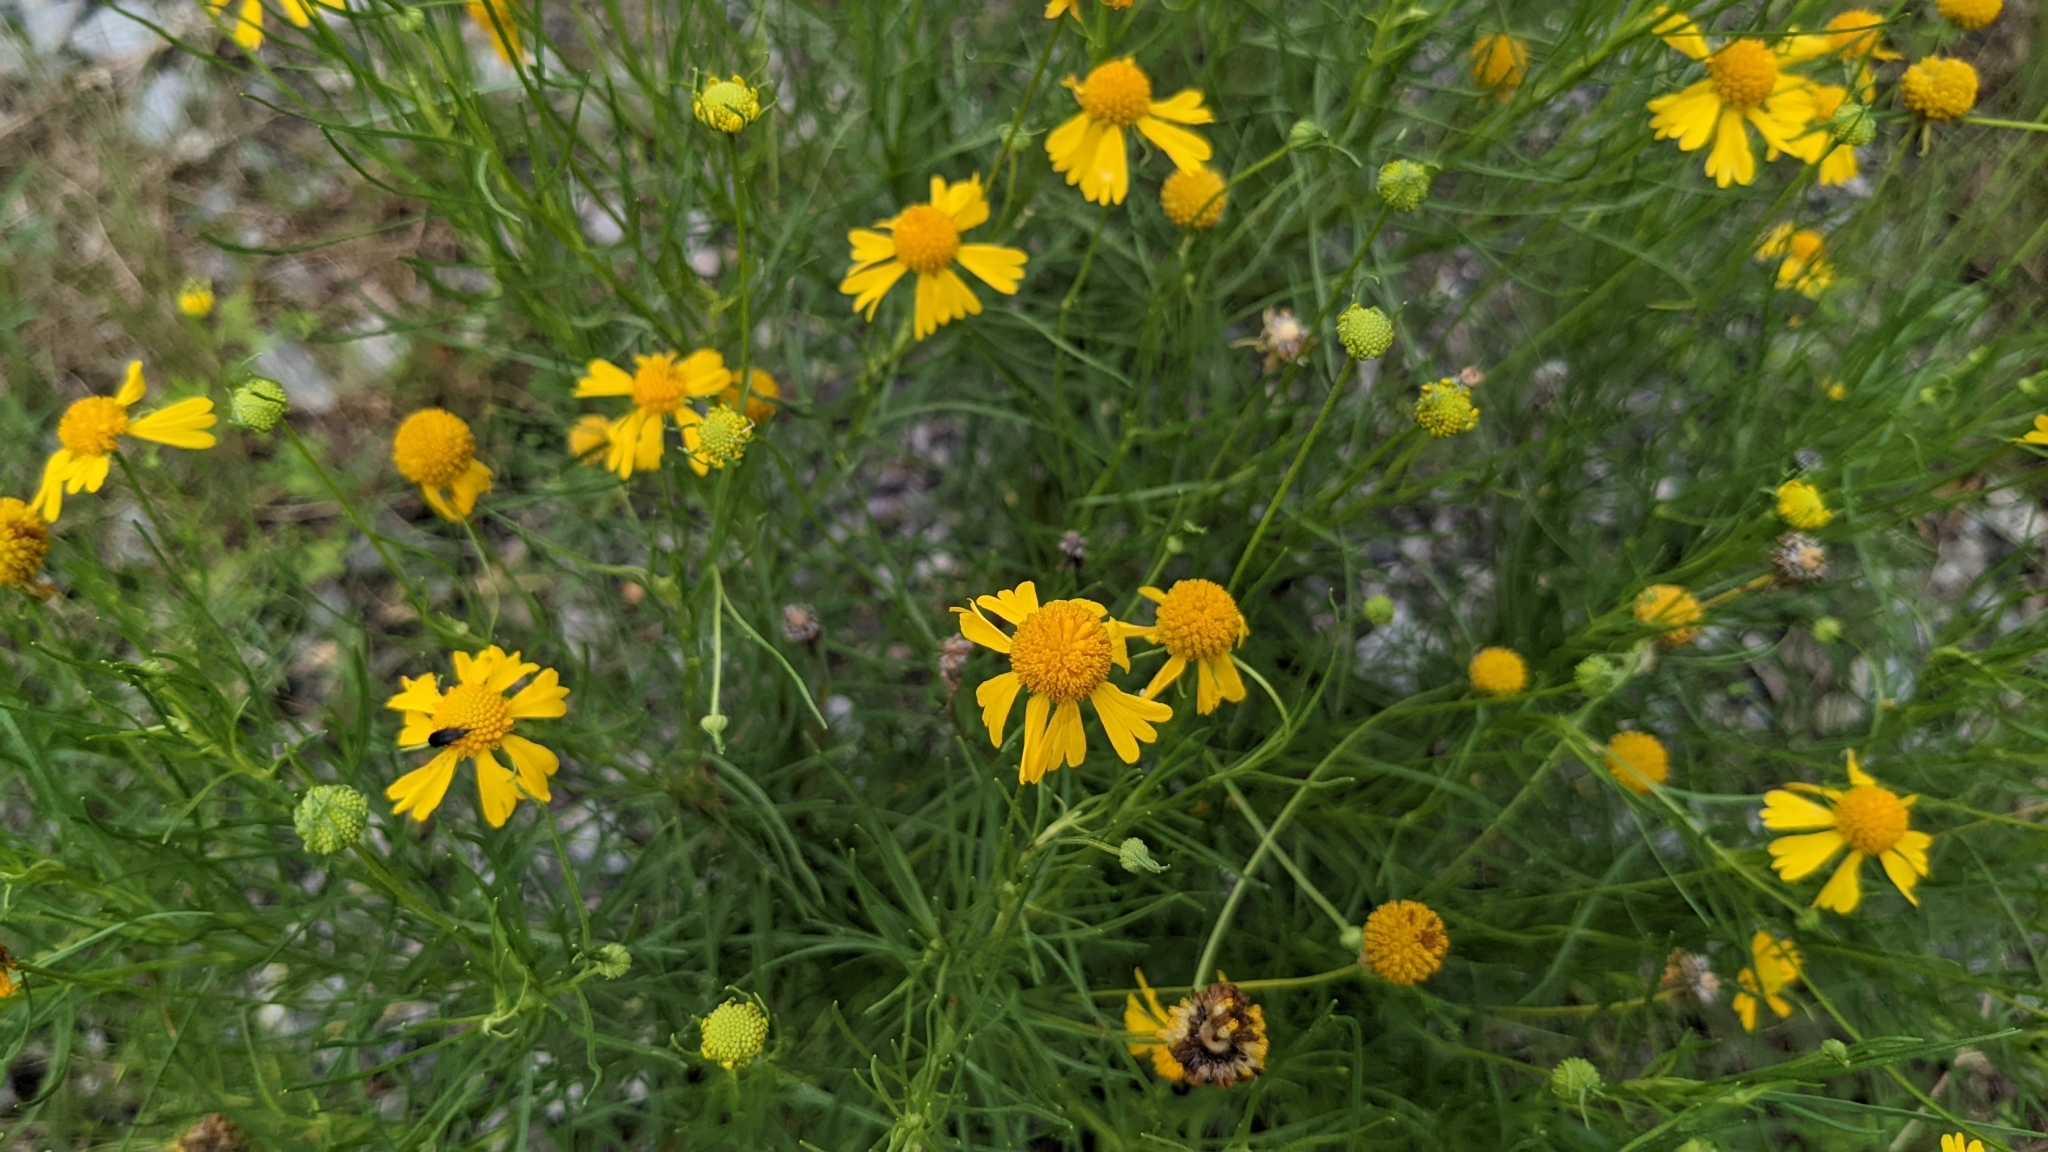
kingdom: Plantae
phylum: Tracheophyta
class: Magnoliopsida
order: Asterales
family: Asteraceae
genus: Helenium
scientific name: Helenium amarum
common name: Bitter sneezeweed
